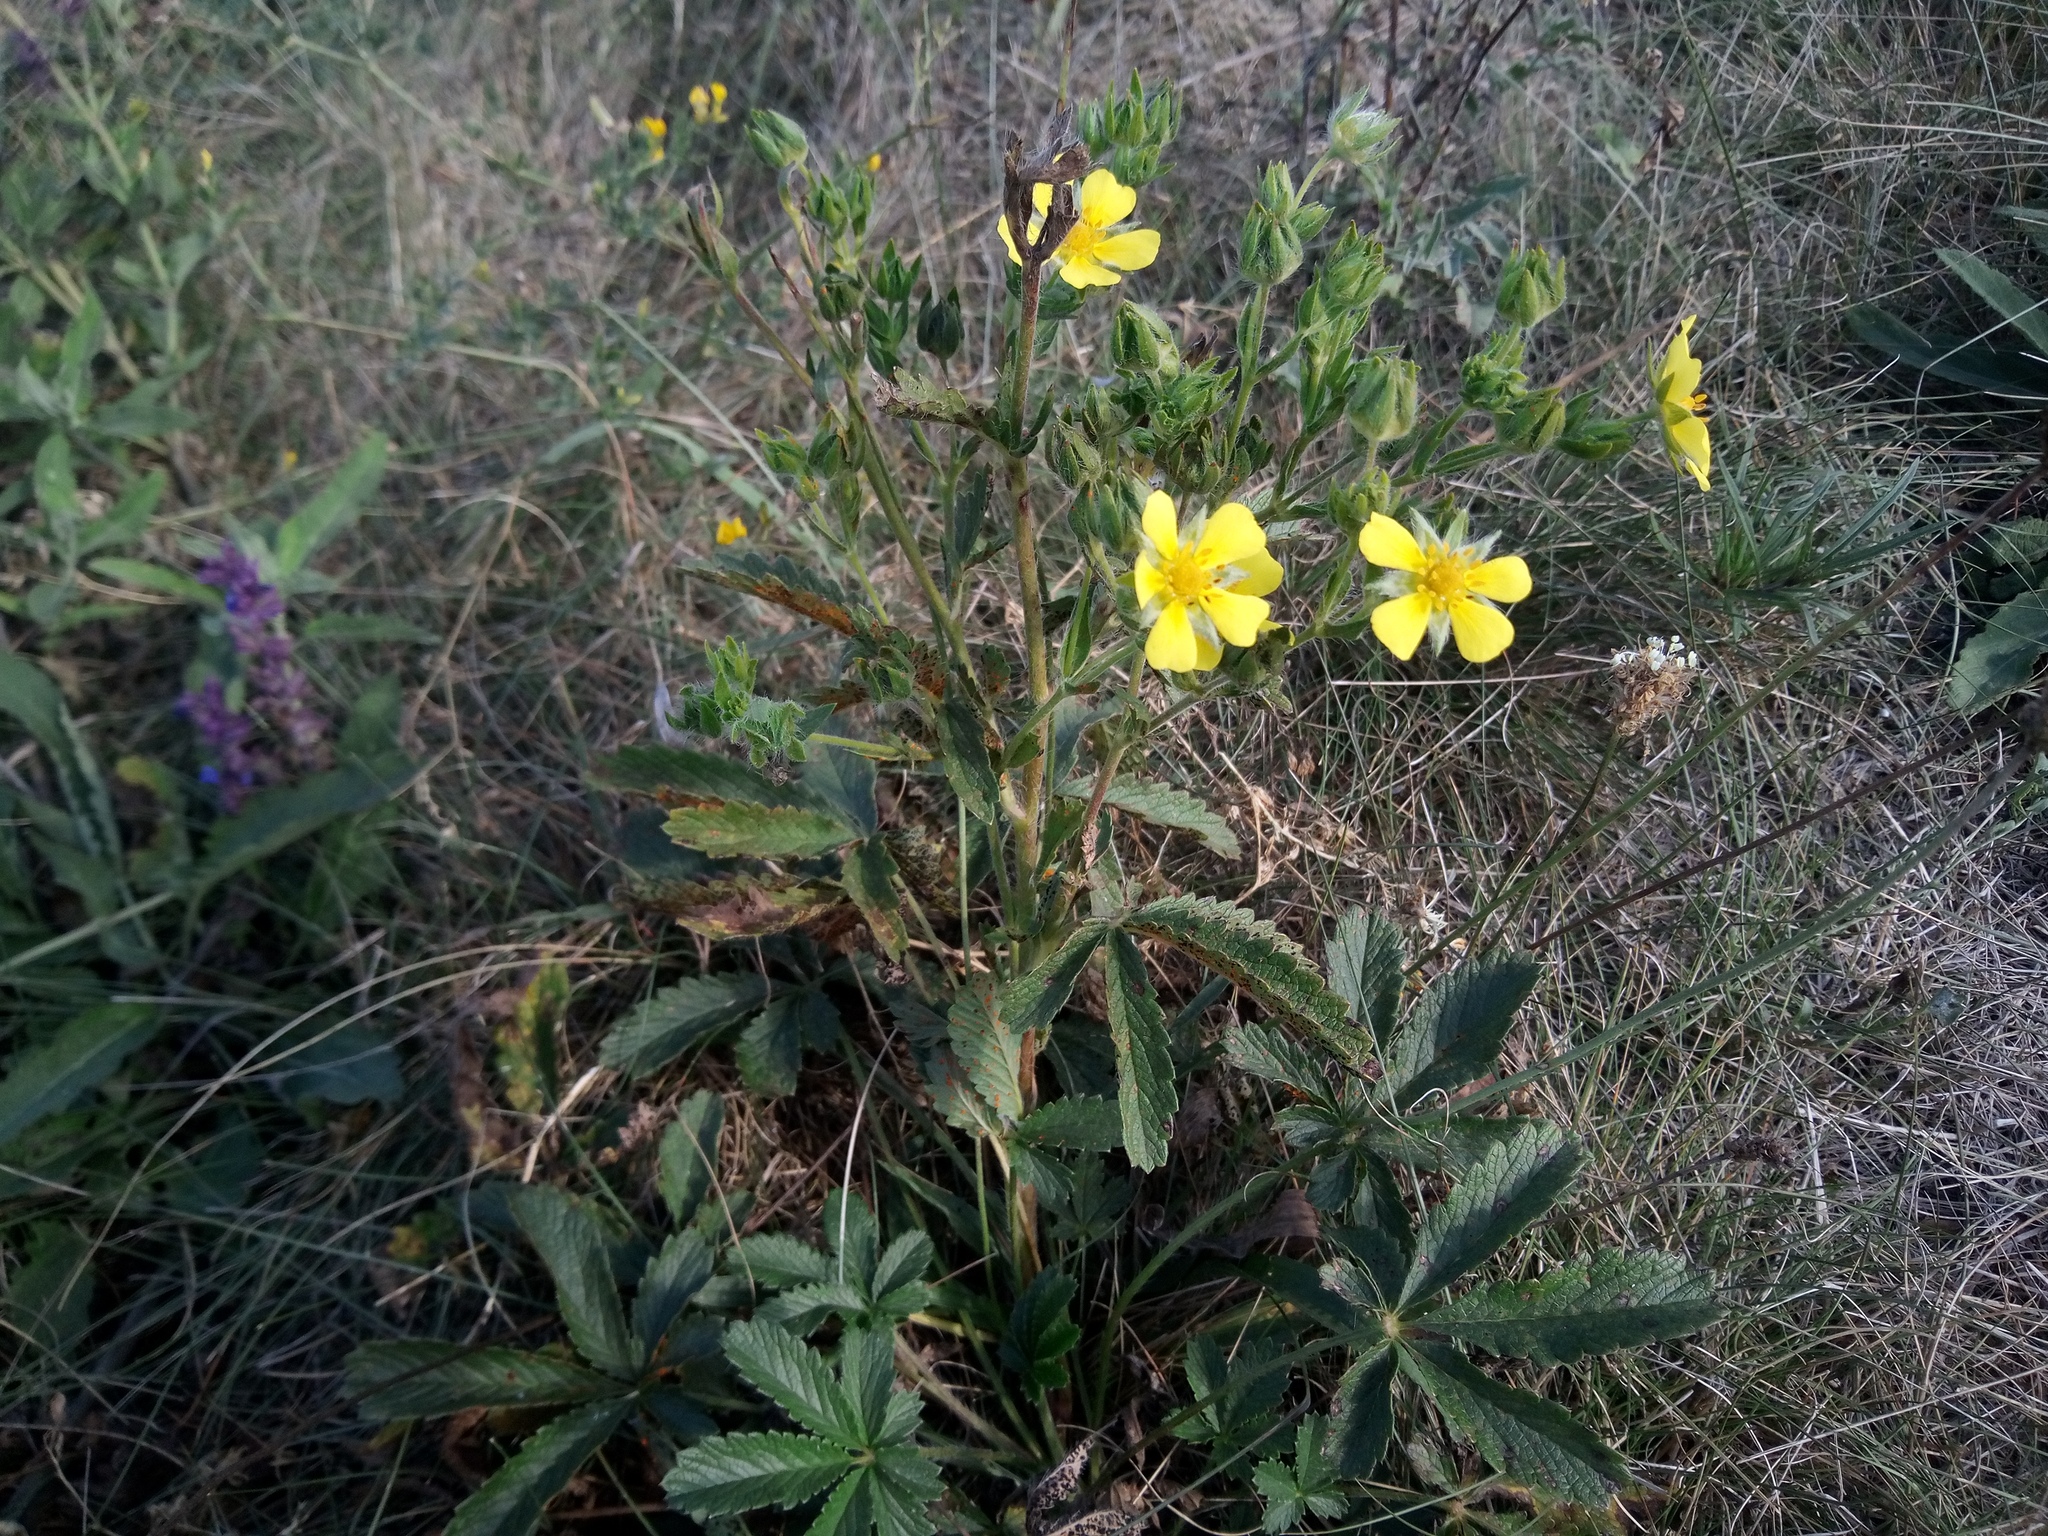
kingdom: Plantae
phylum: Tracheophyta
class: Magnoliopsida
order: Rosales
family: Rosaceae
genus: Potentilla
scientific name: Potentilla recta
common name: Sulphur cinquefoil
